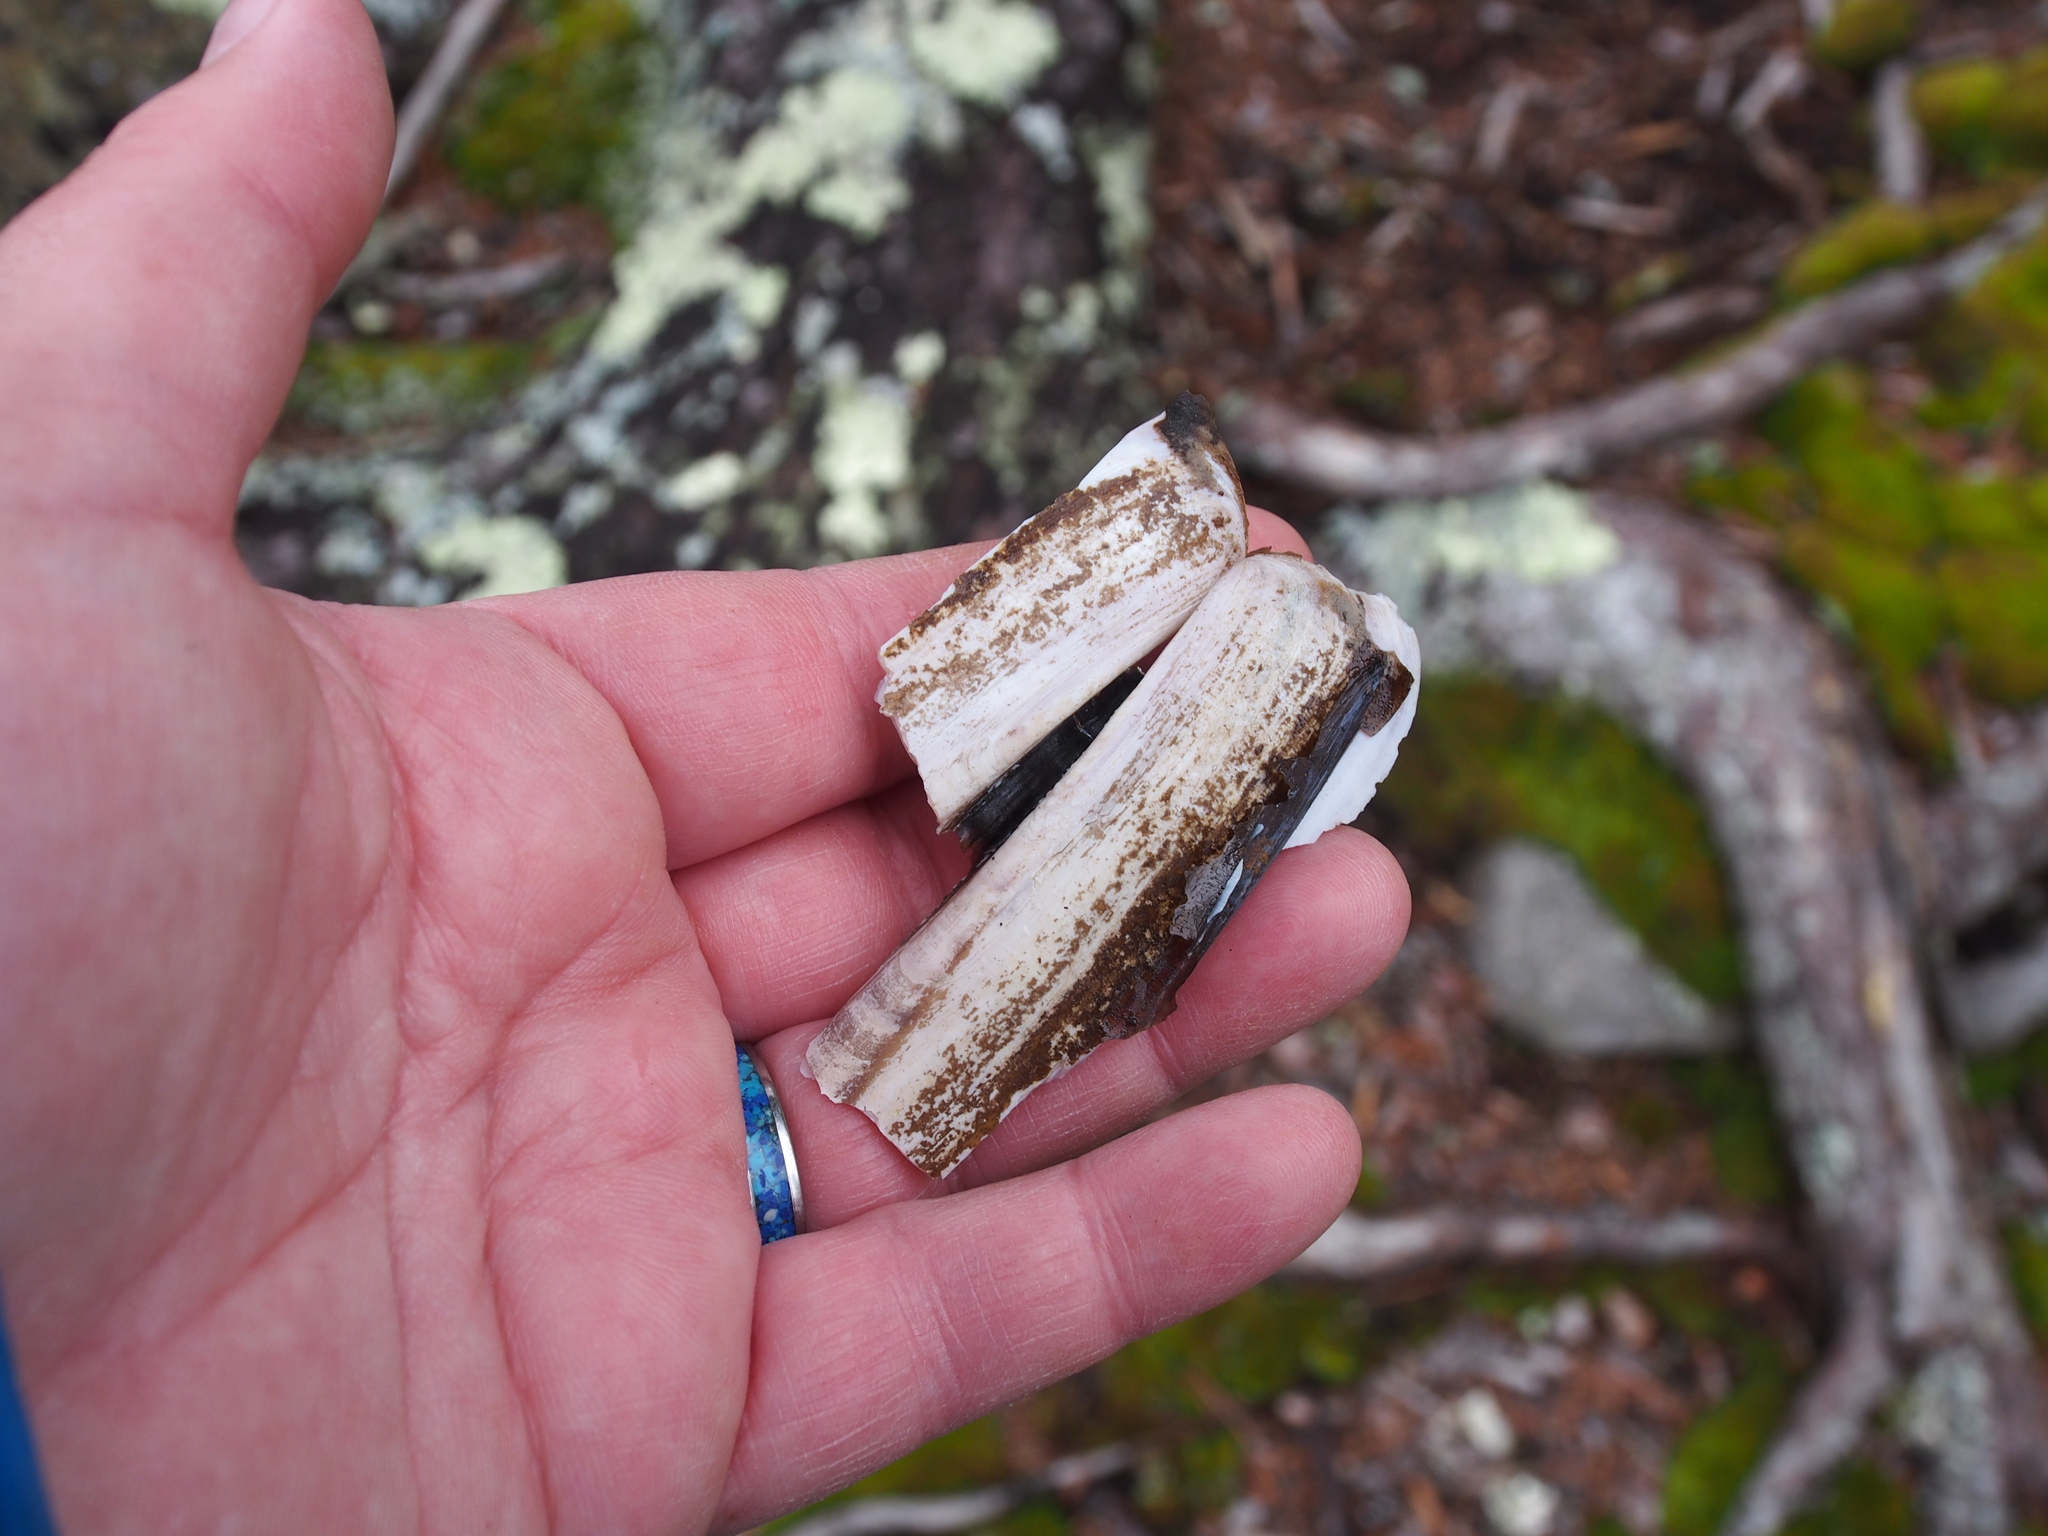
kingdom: Animalia
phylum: Mollusca
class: Bivalvia
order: Adapedonta
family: Pharidae
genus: Ensis
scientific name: Ensis leei
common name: American jack knife clam
